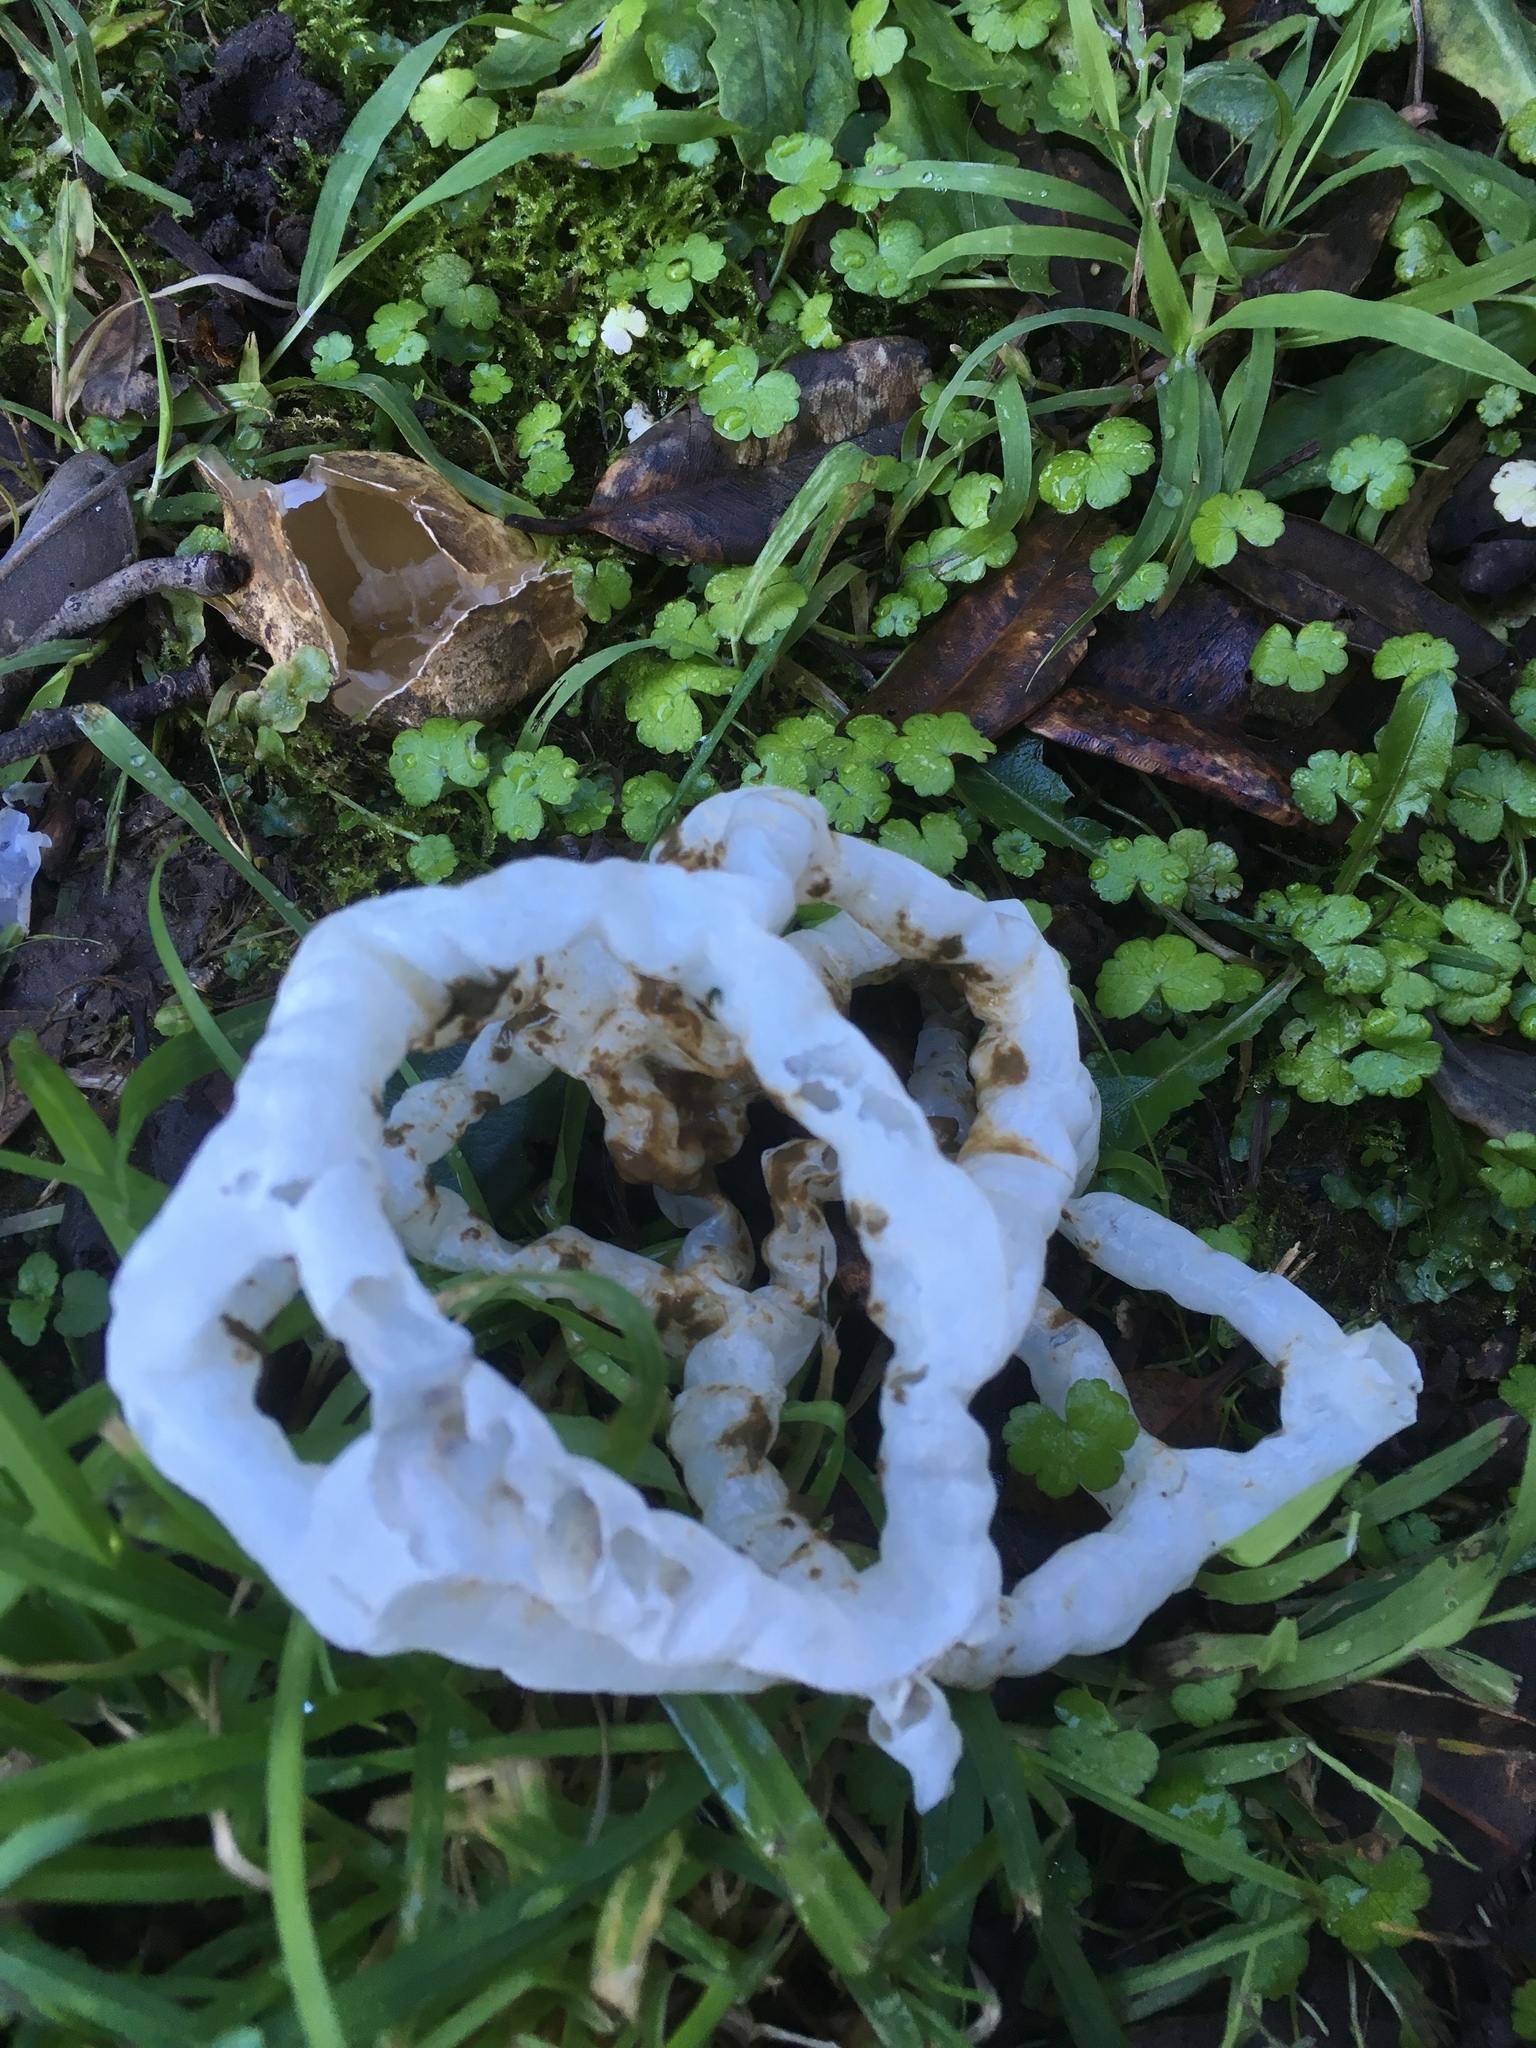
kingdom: Fungi
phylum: Basidiomycota
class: Agaricomycetes
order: Phallales
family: Phallaceae
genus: Ileodictyon
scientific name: Ileodictyon cibarium
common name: Basket fungus
